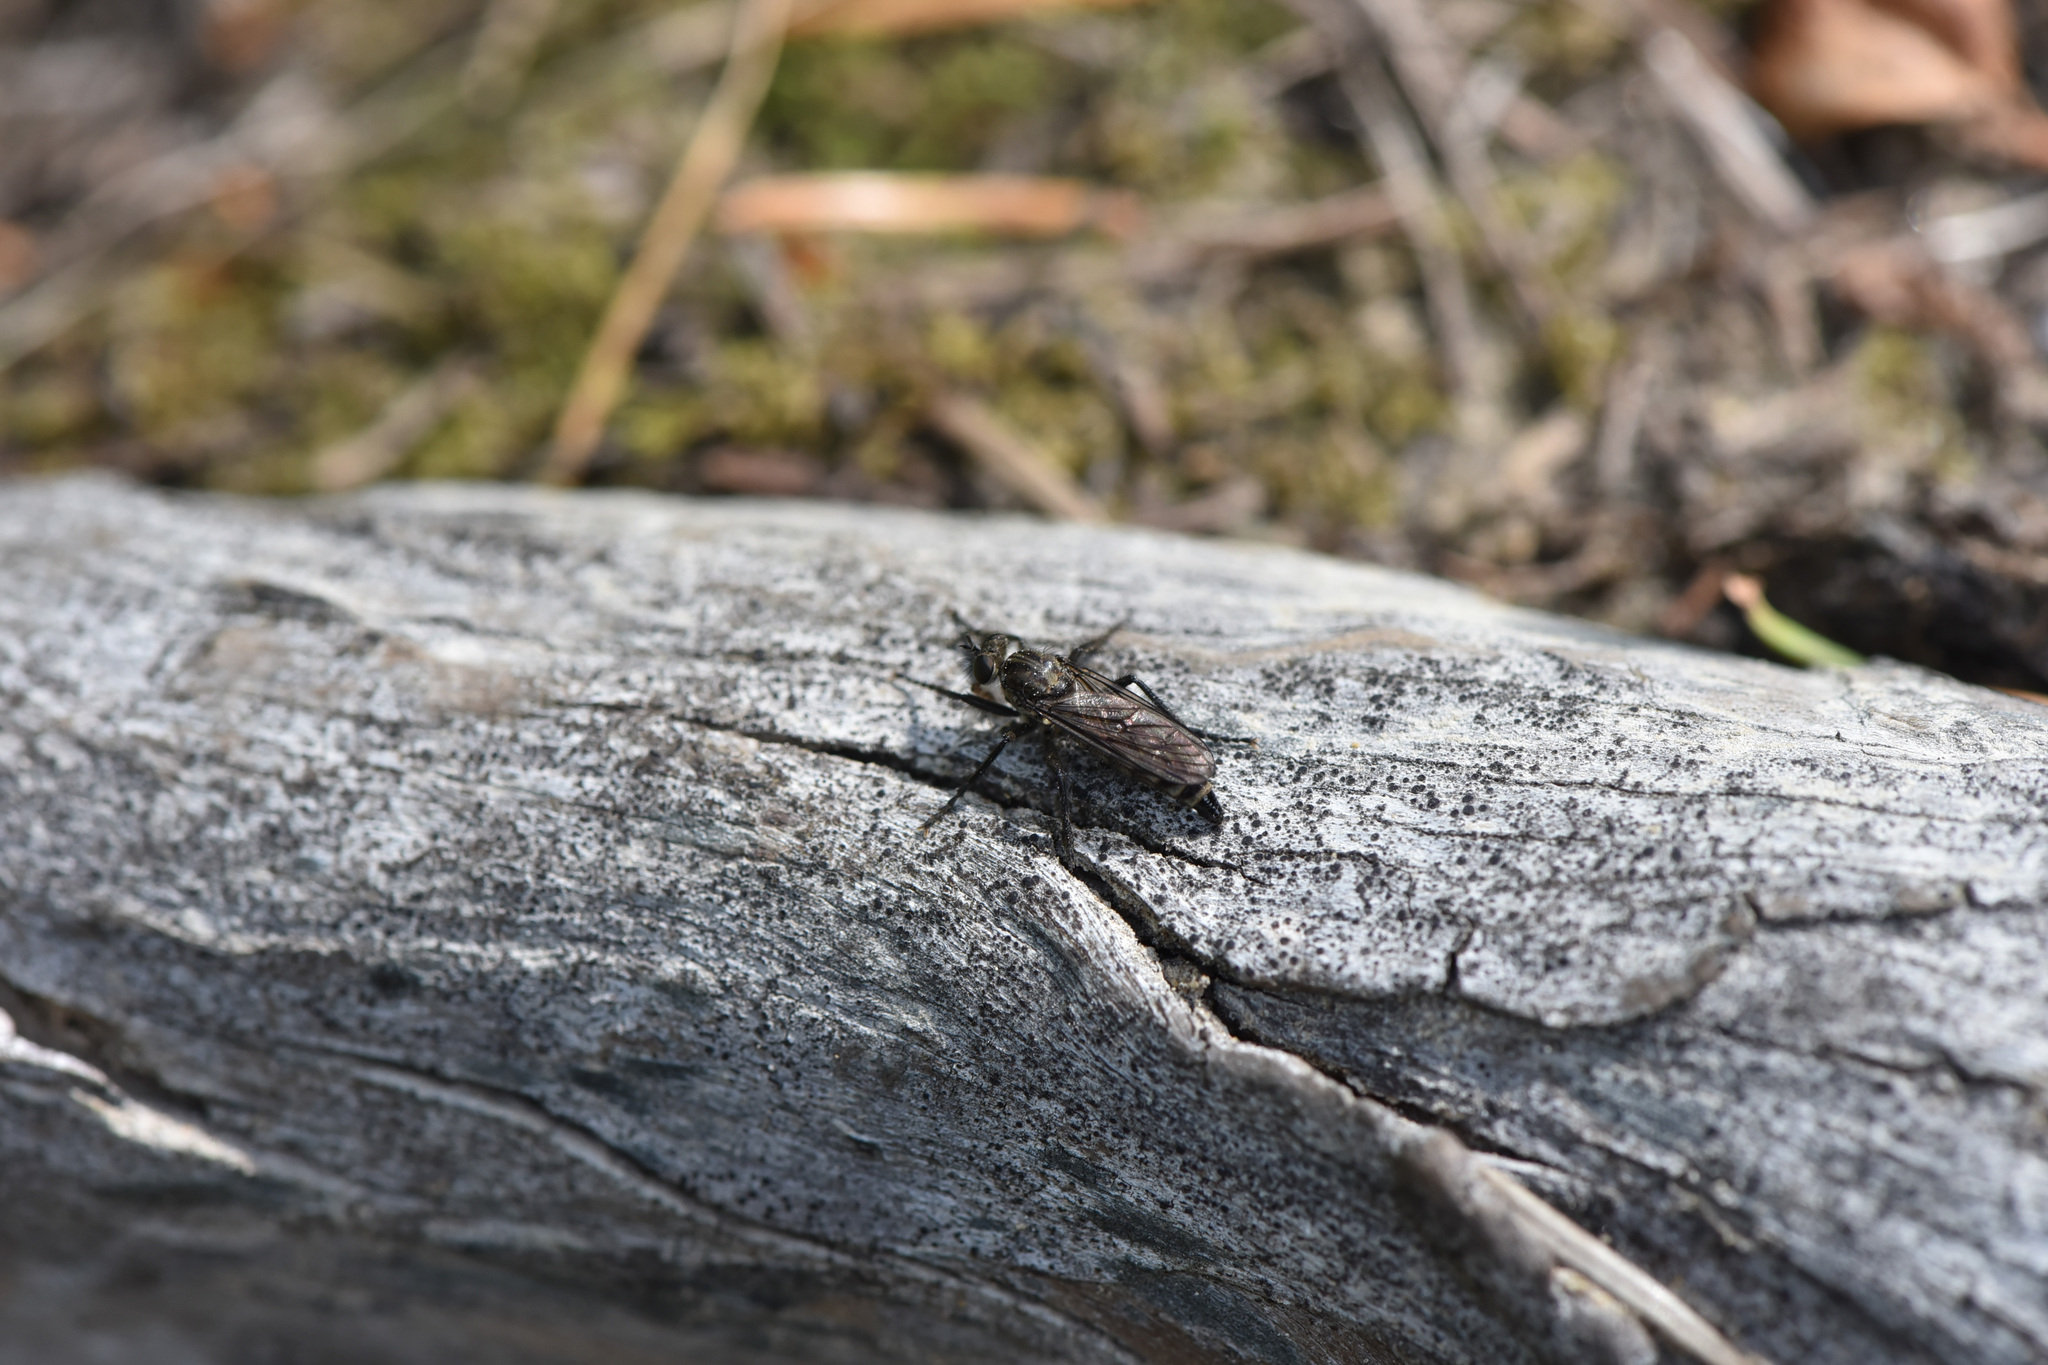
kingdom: Animalia
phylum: Arthropoda
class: Insecta
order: Diptera
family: Asilidae
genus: Lasiopogon
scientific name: Lasiopogon aldrichii
